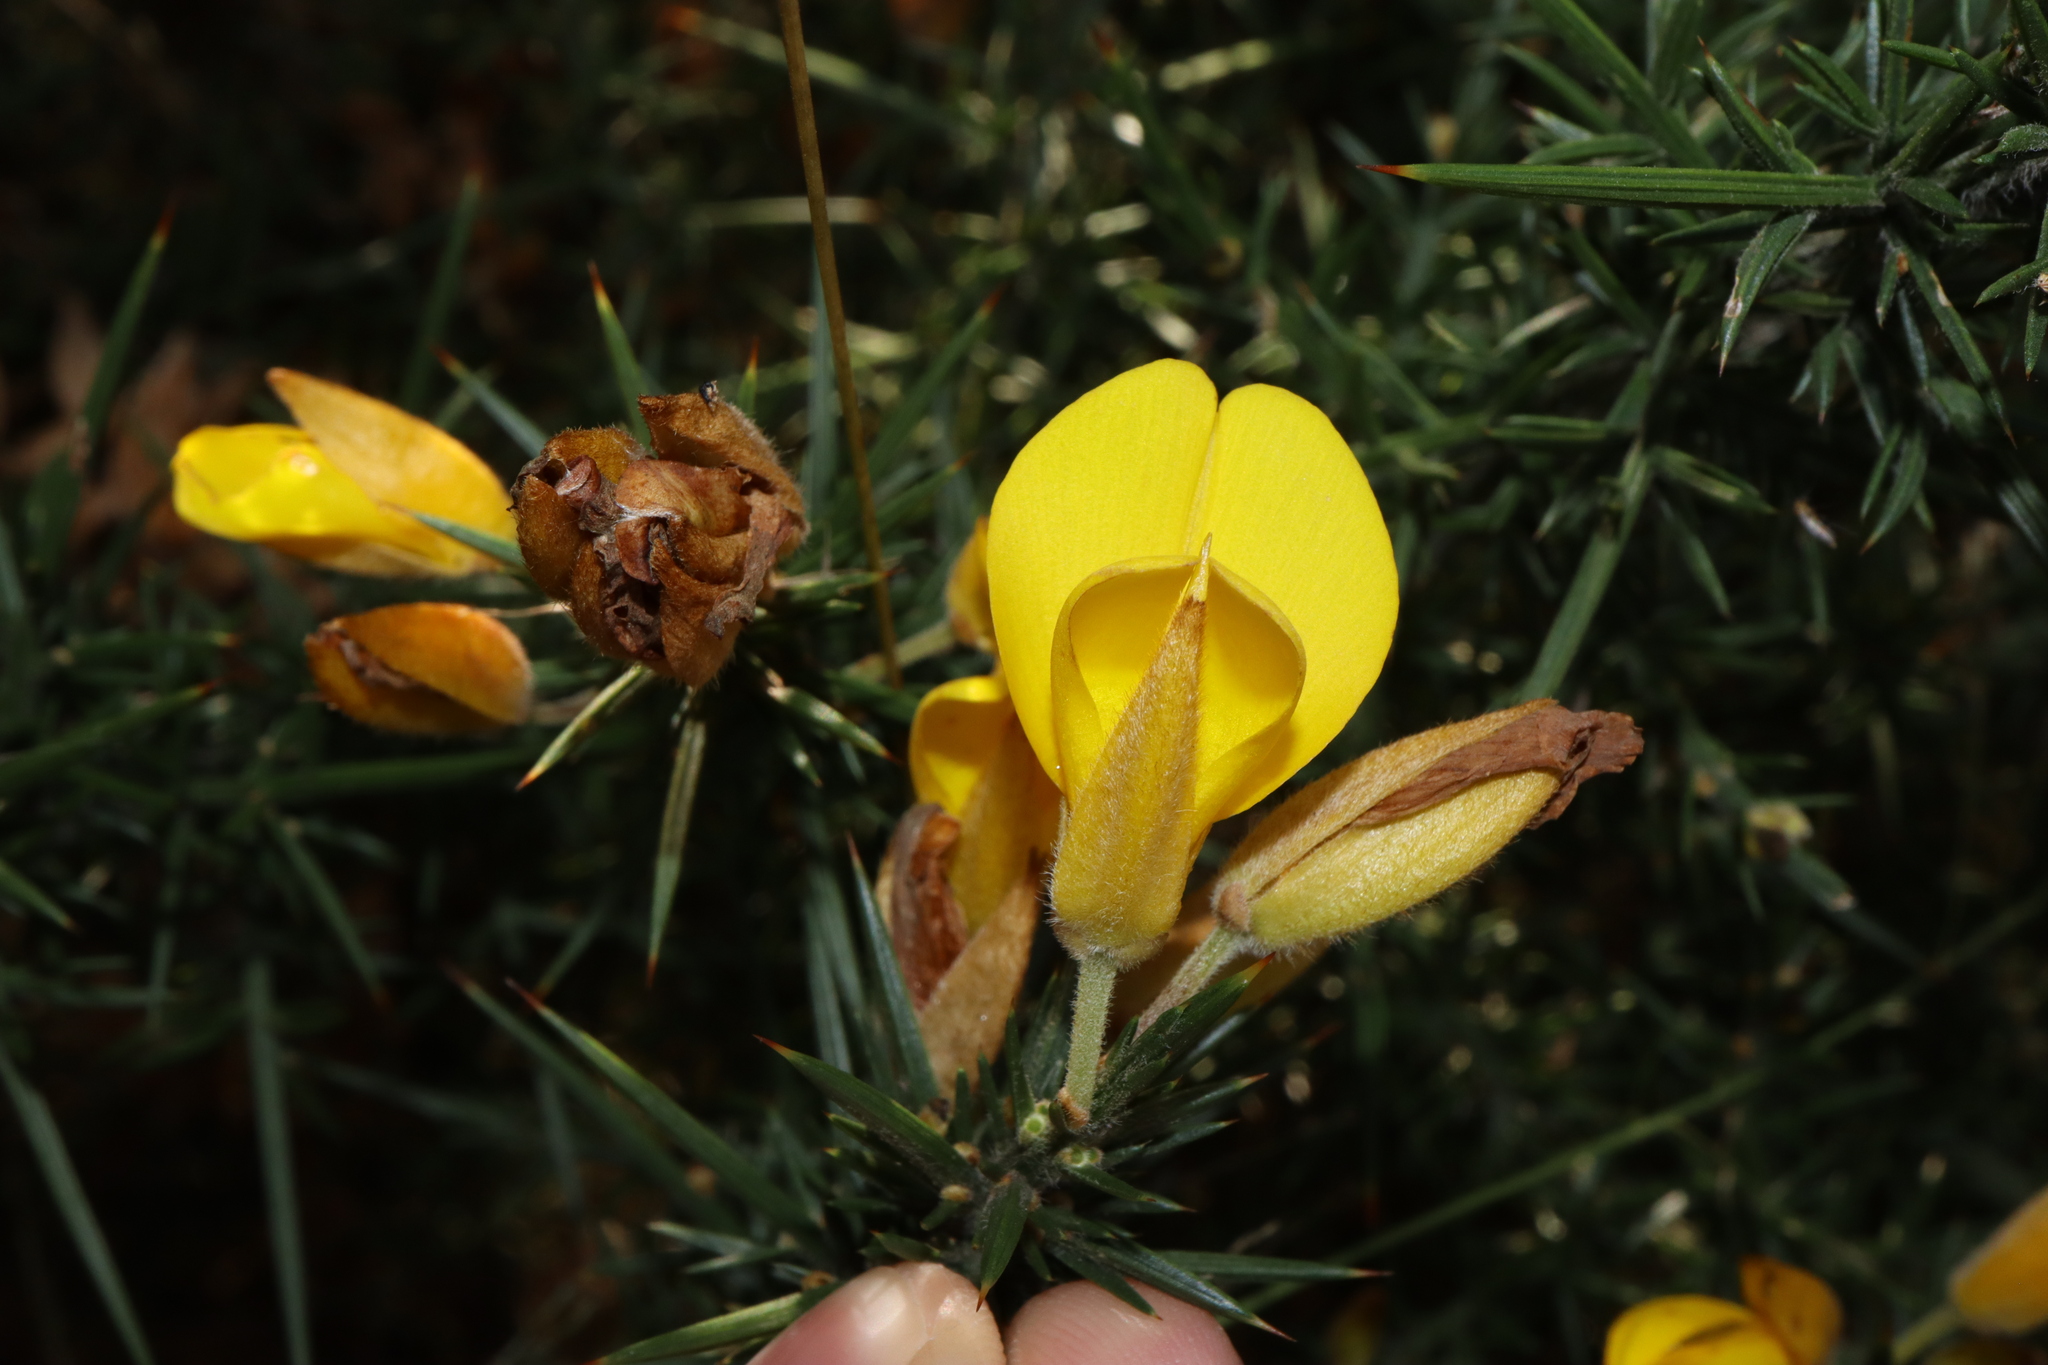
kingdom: Plantae
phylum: Tracheophyta
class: Magnoliopsida
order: Fabales
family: Fabaceae
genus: Ulex
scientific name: Ulex europaeus
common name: Common gorse
